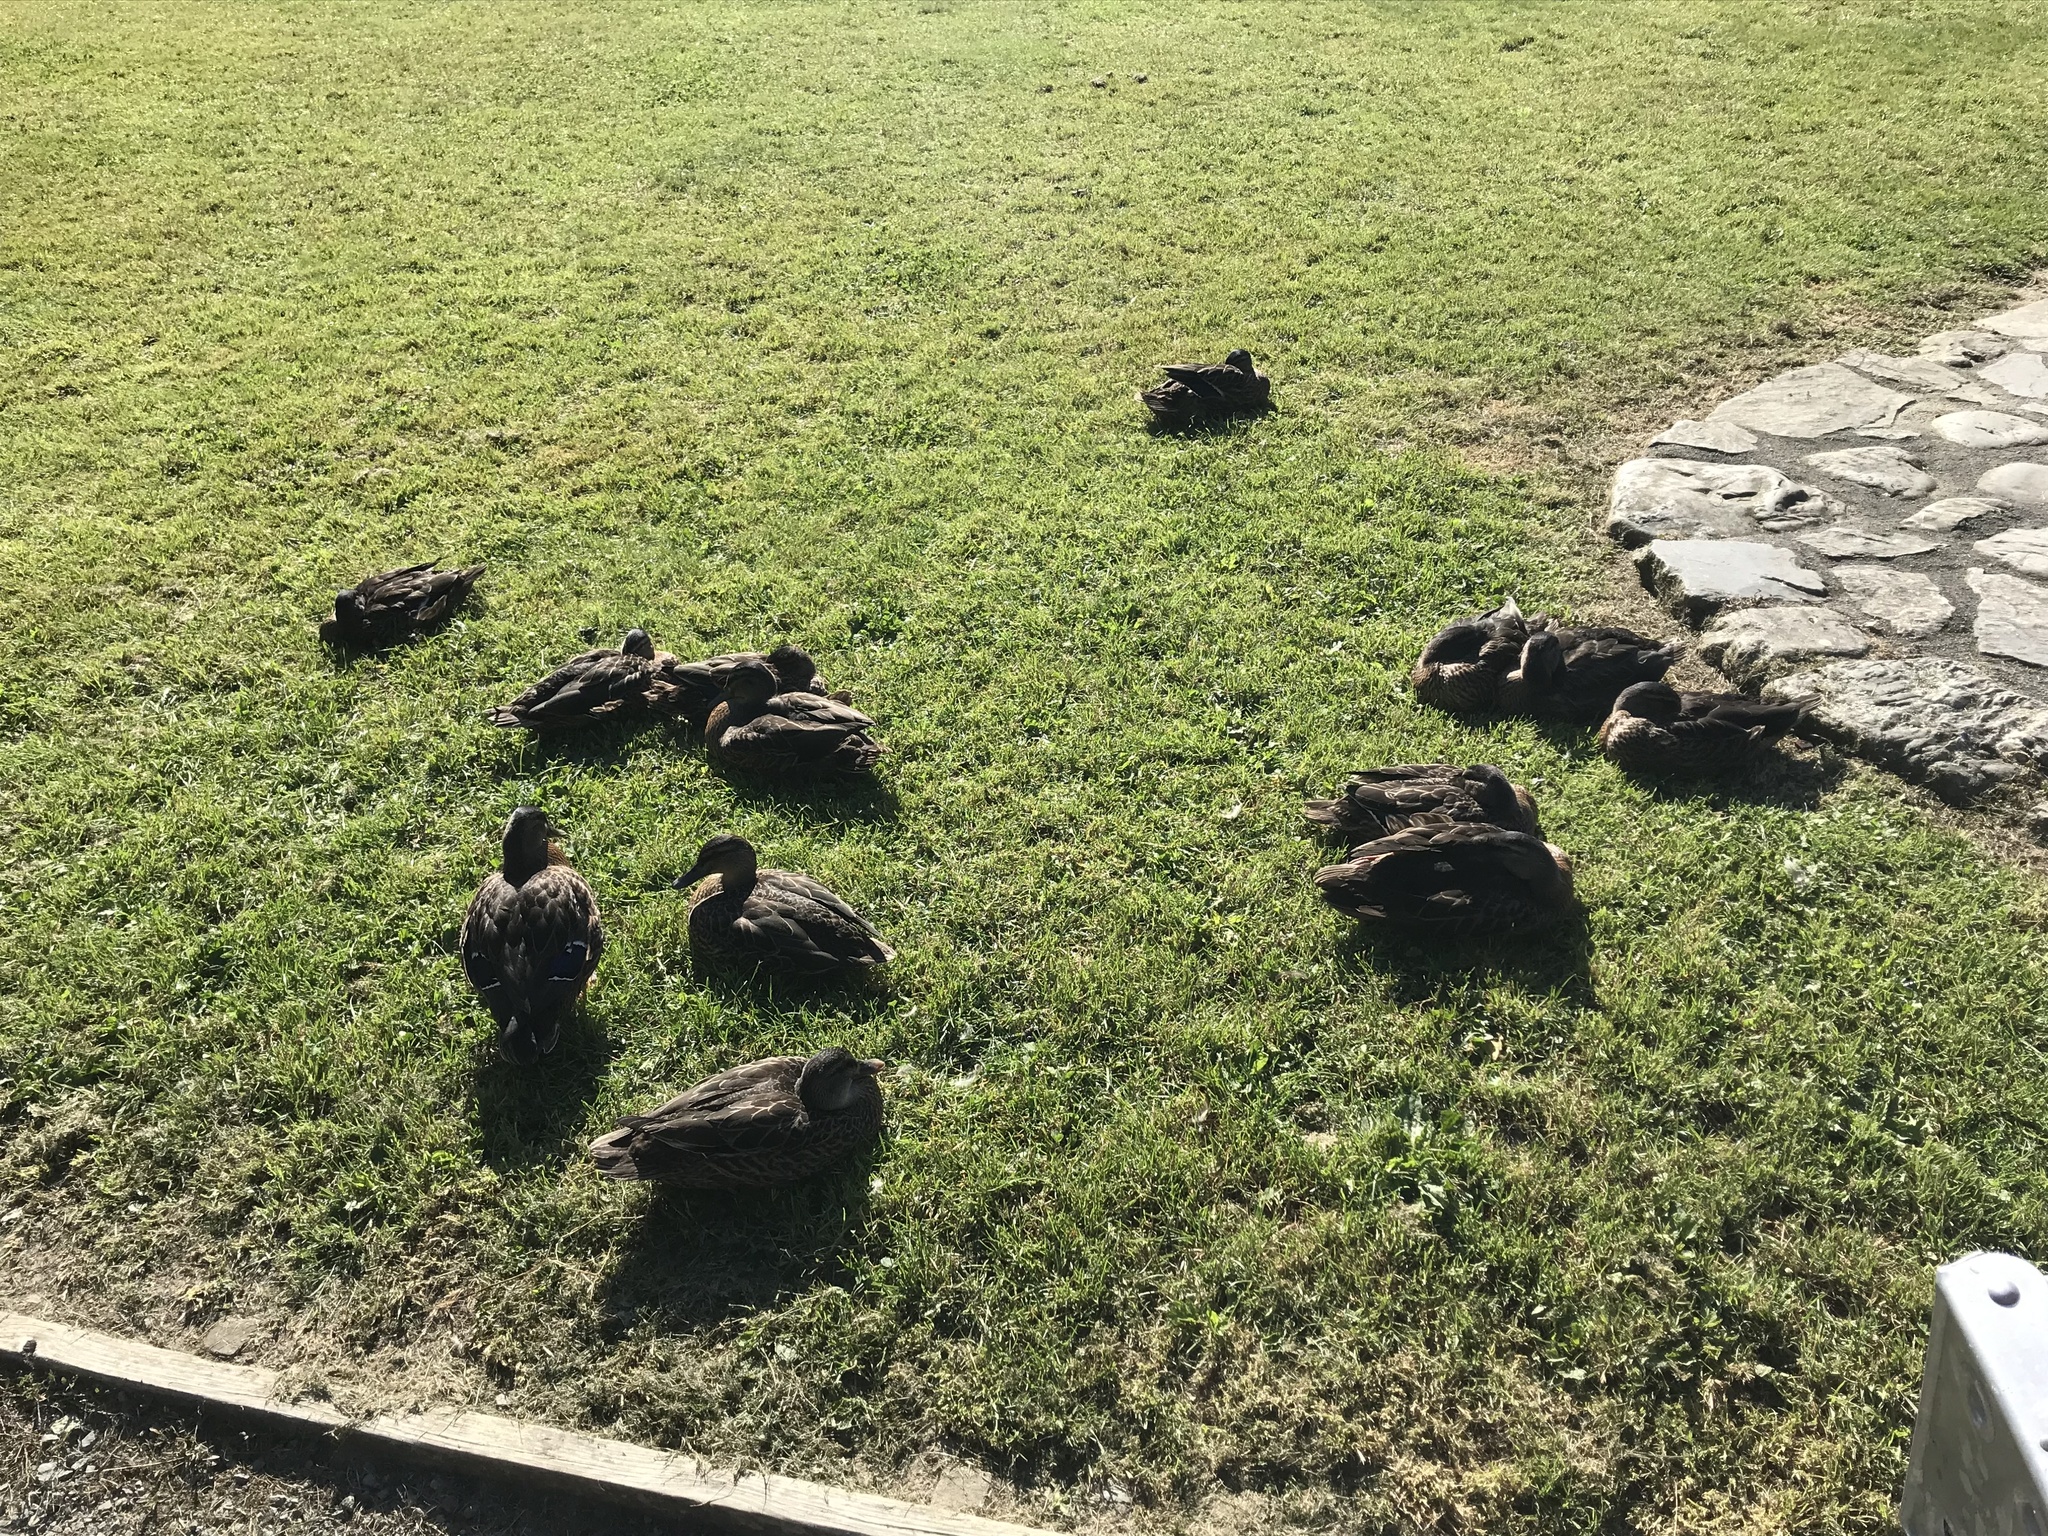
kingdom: Animalia
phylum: Chordata
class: Aves
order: Anseriformes
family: Anatidae
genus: Anas
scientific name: Anas
